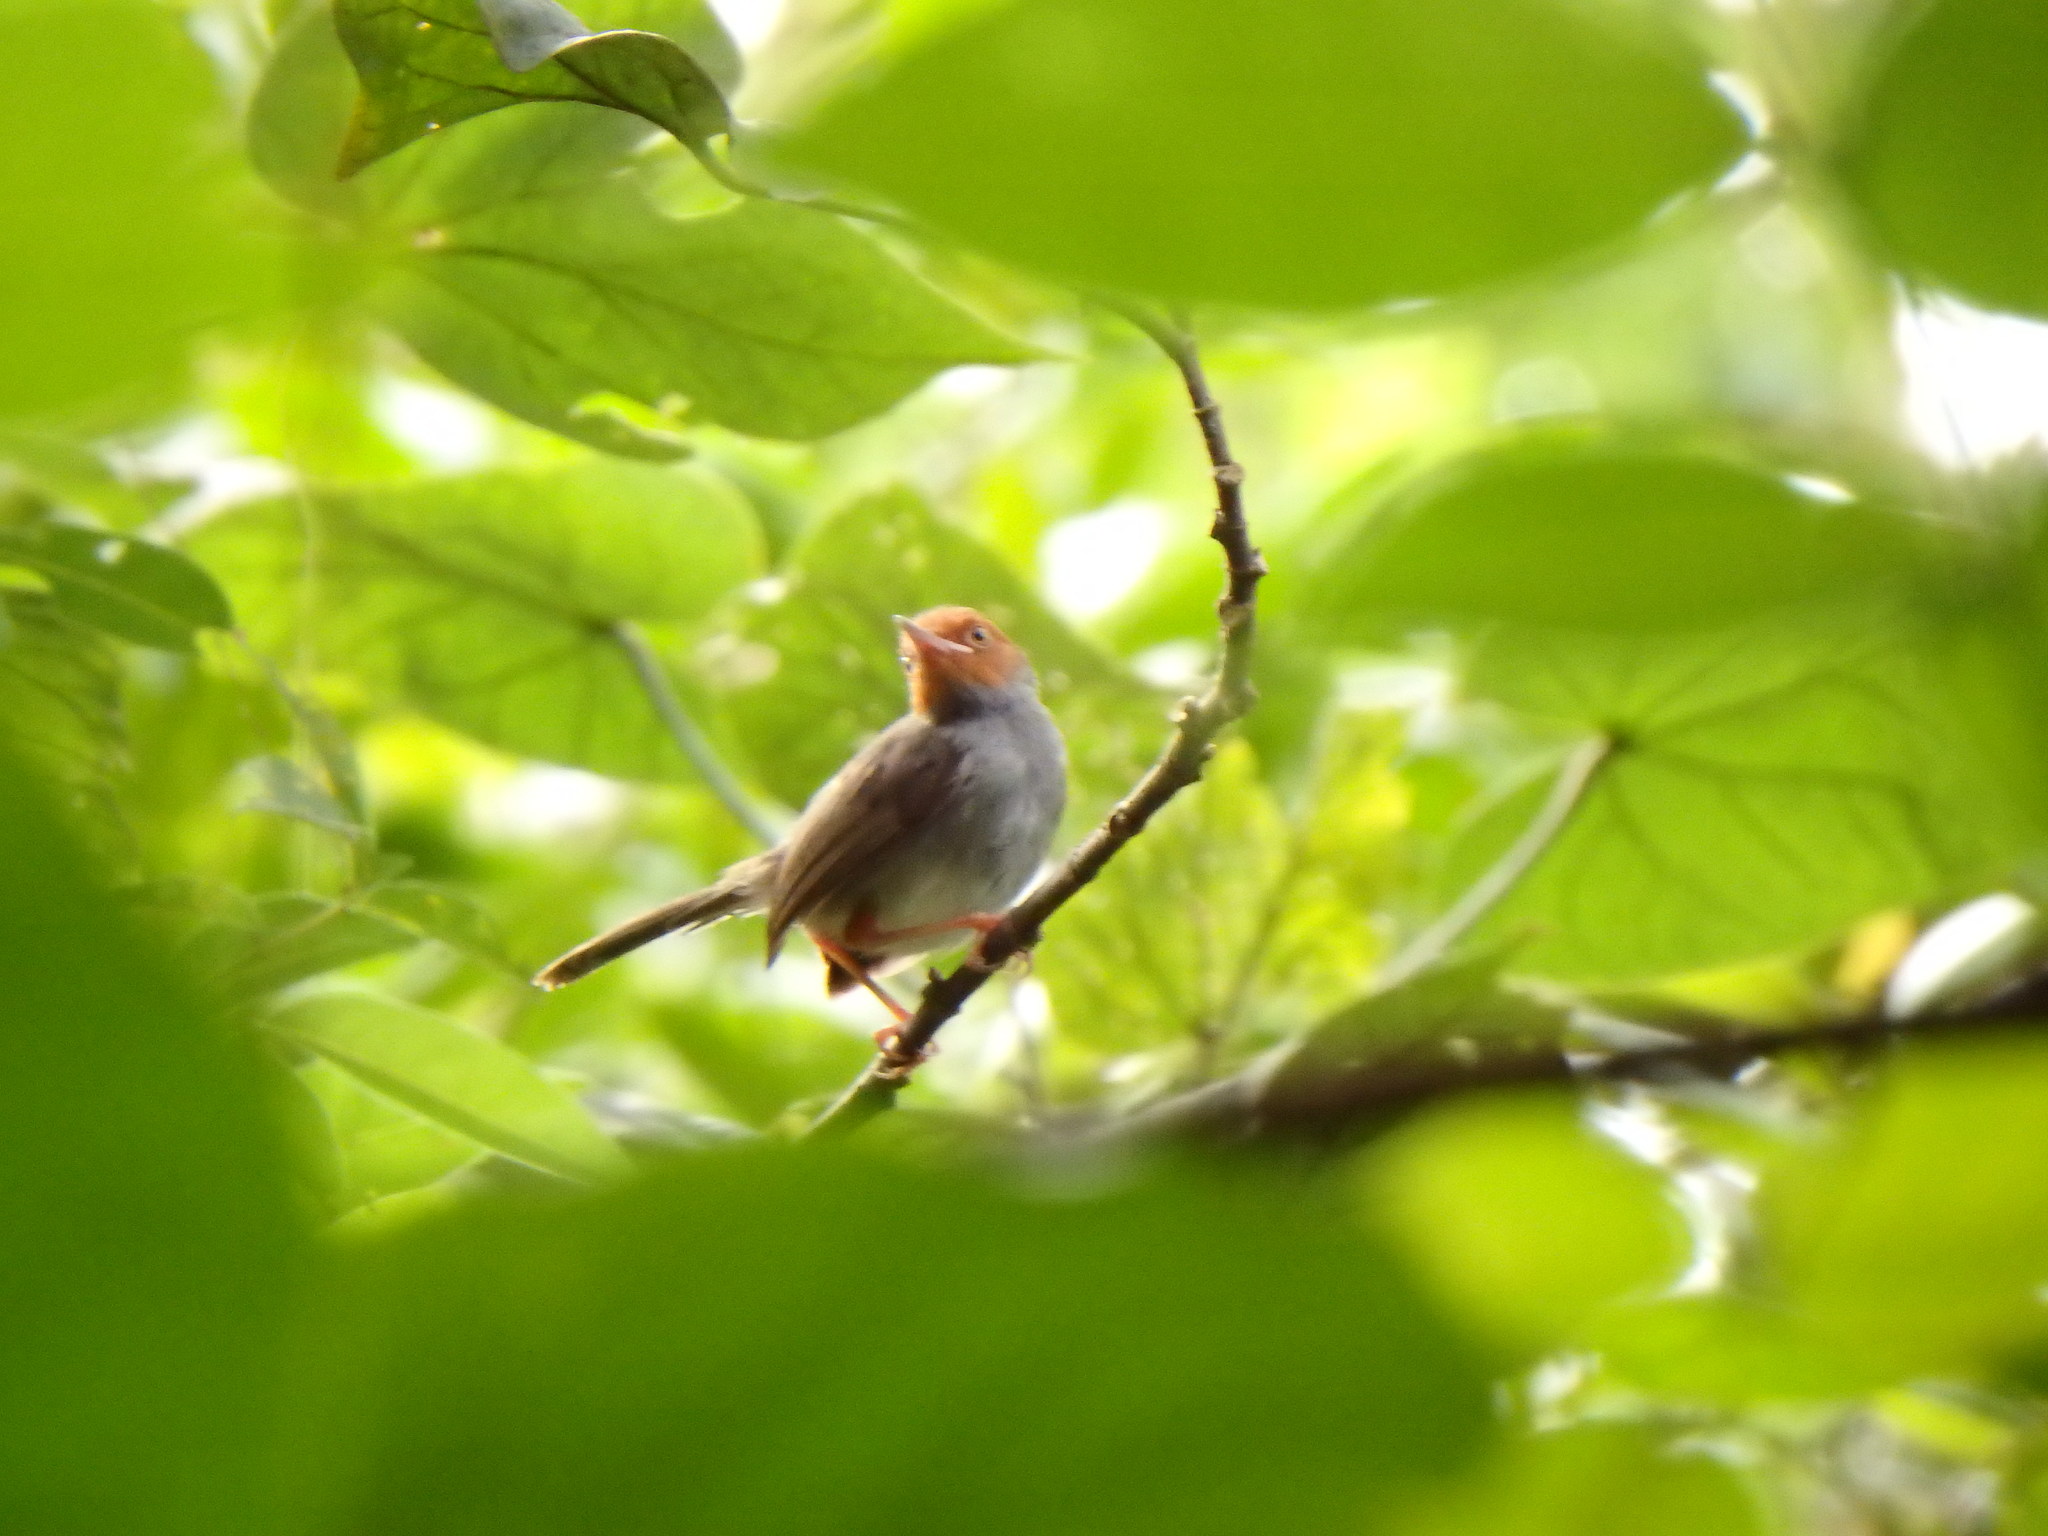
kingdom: Animalia
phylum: Chordata
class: Aves
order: Passeriformes
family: Cisticolidae
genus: Orthotomus
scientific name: Orthotomus ruficeps
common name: Ashy tailorbird
